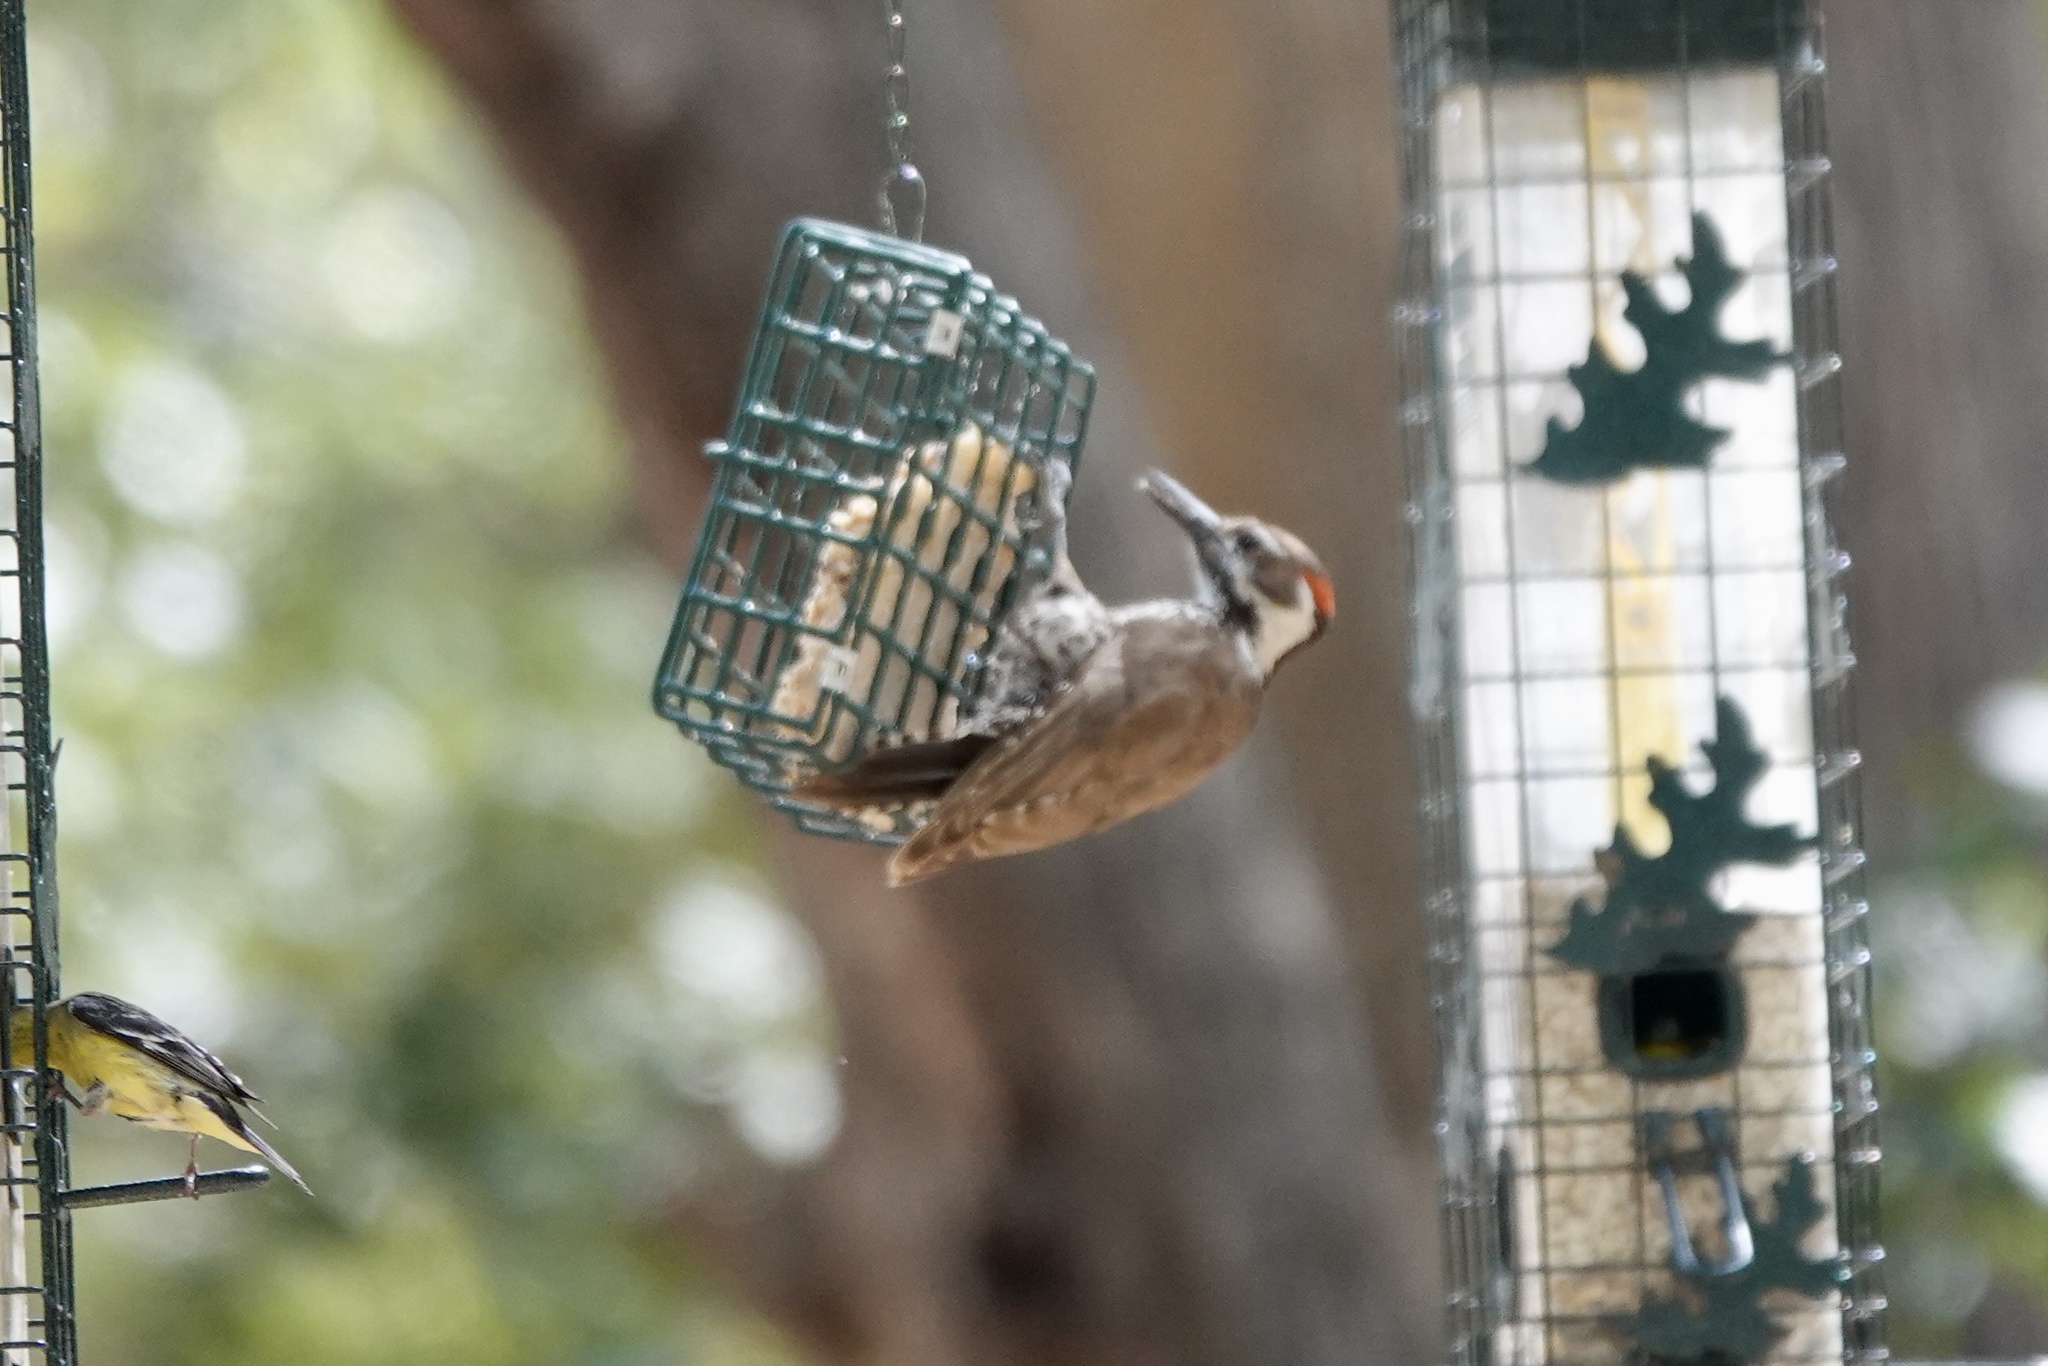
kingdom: Animalia
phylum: Chordata
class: Aves
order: Piciformes
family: Picidae
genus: Leuconotopicus
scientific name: Leuconotopicus arizonae
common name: Arizona woodpecker
